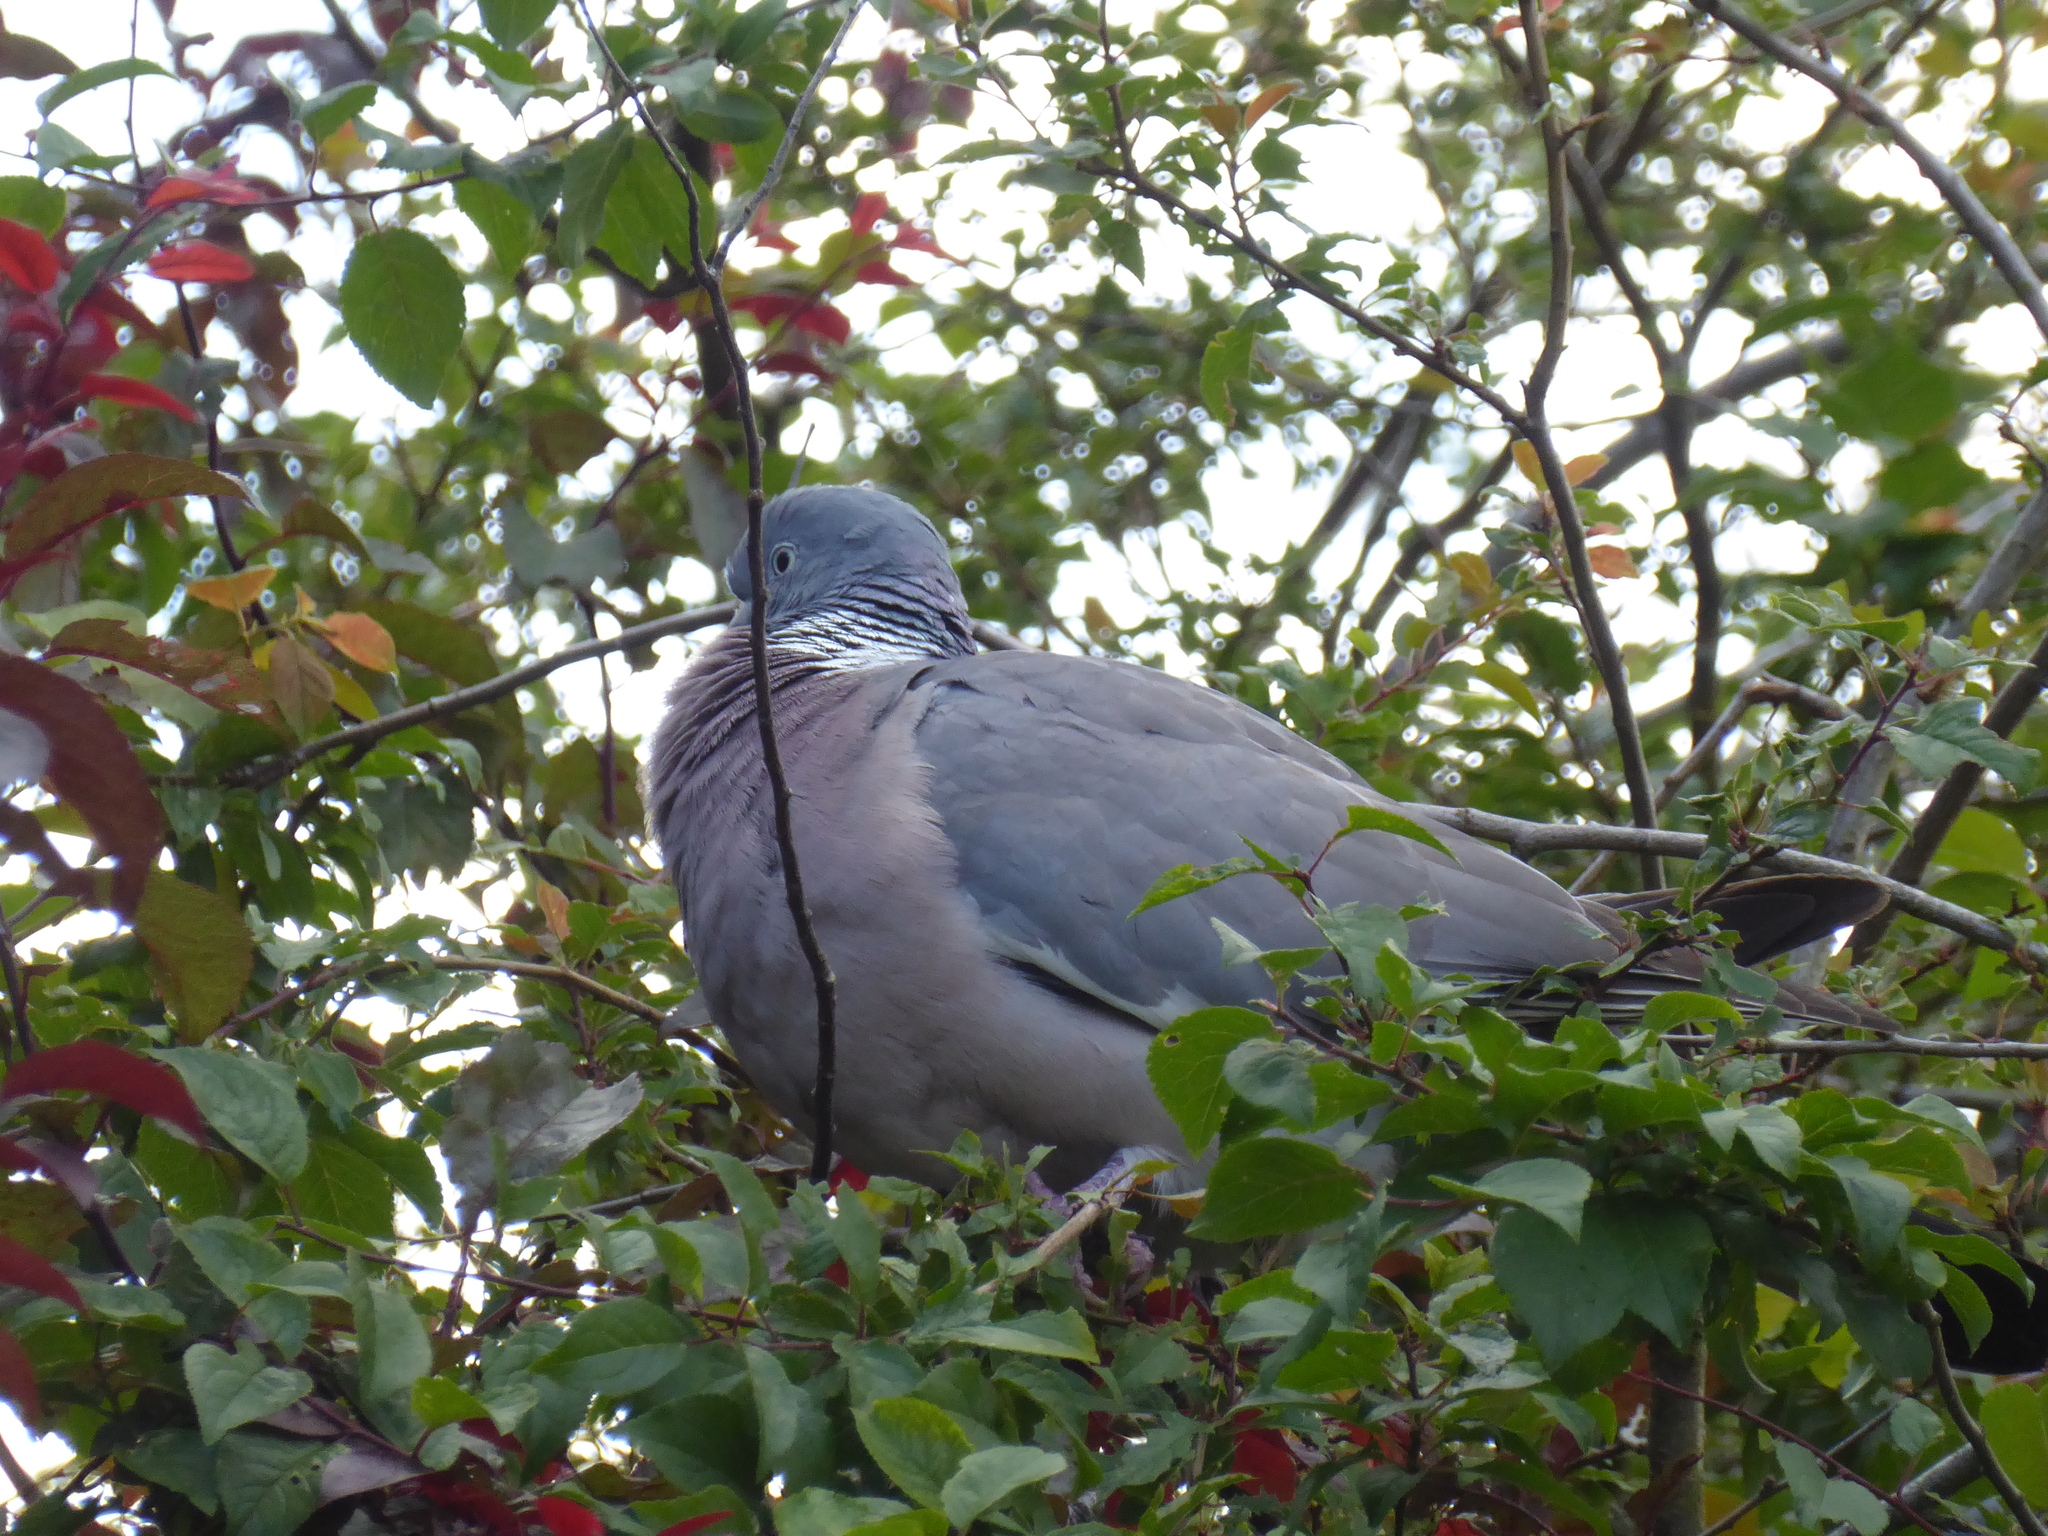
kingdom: Animalia
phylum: Chordata
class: Aves
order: Columbiformes
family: Columbidae
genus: Columba
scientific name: Columba palumbus
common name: Common wood pigeon
